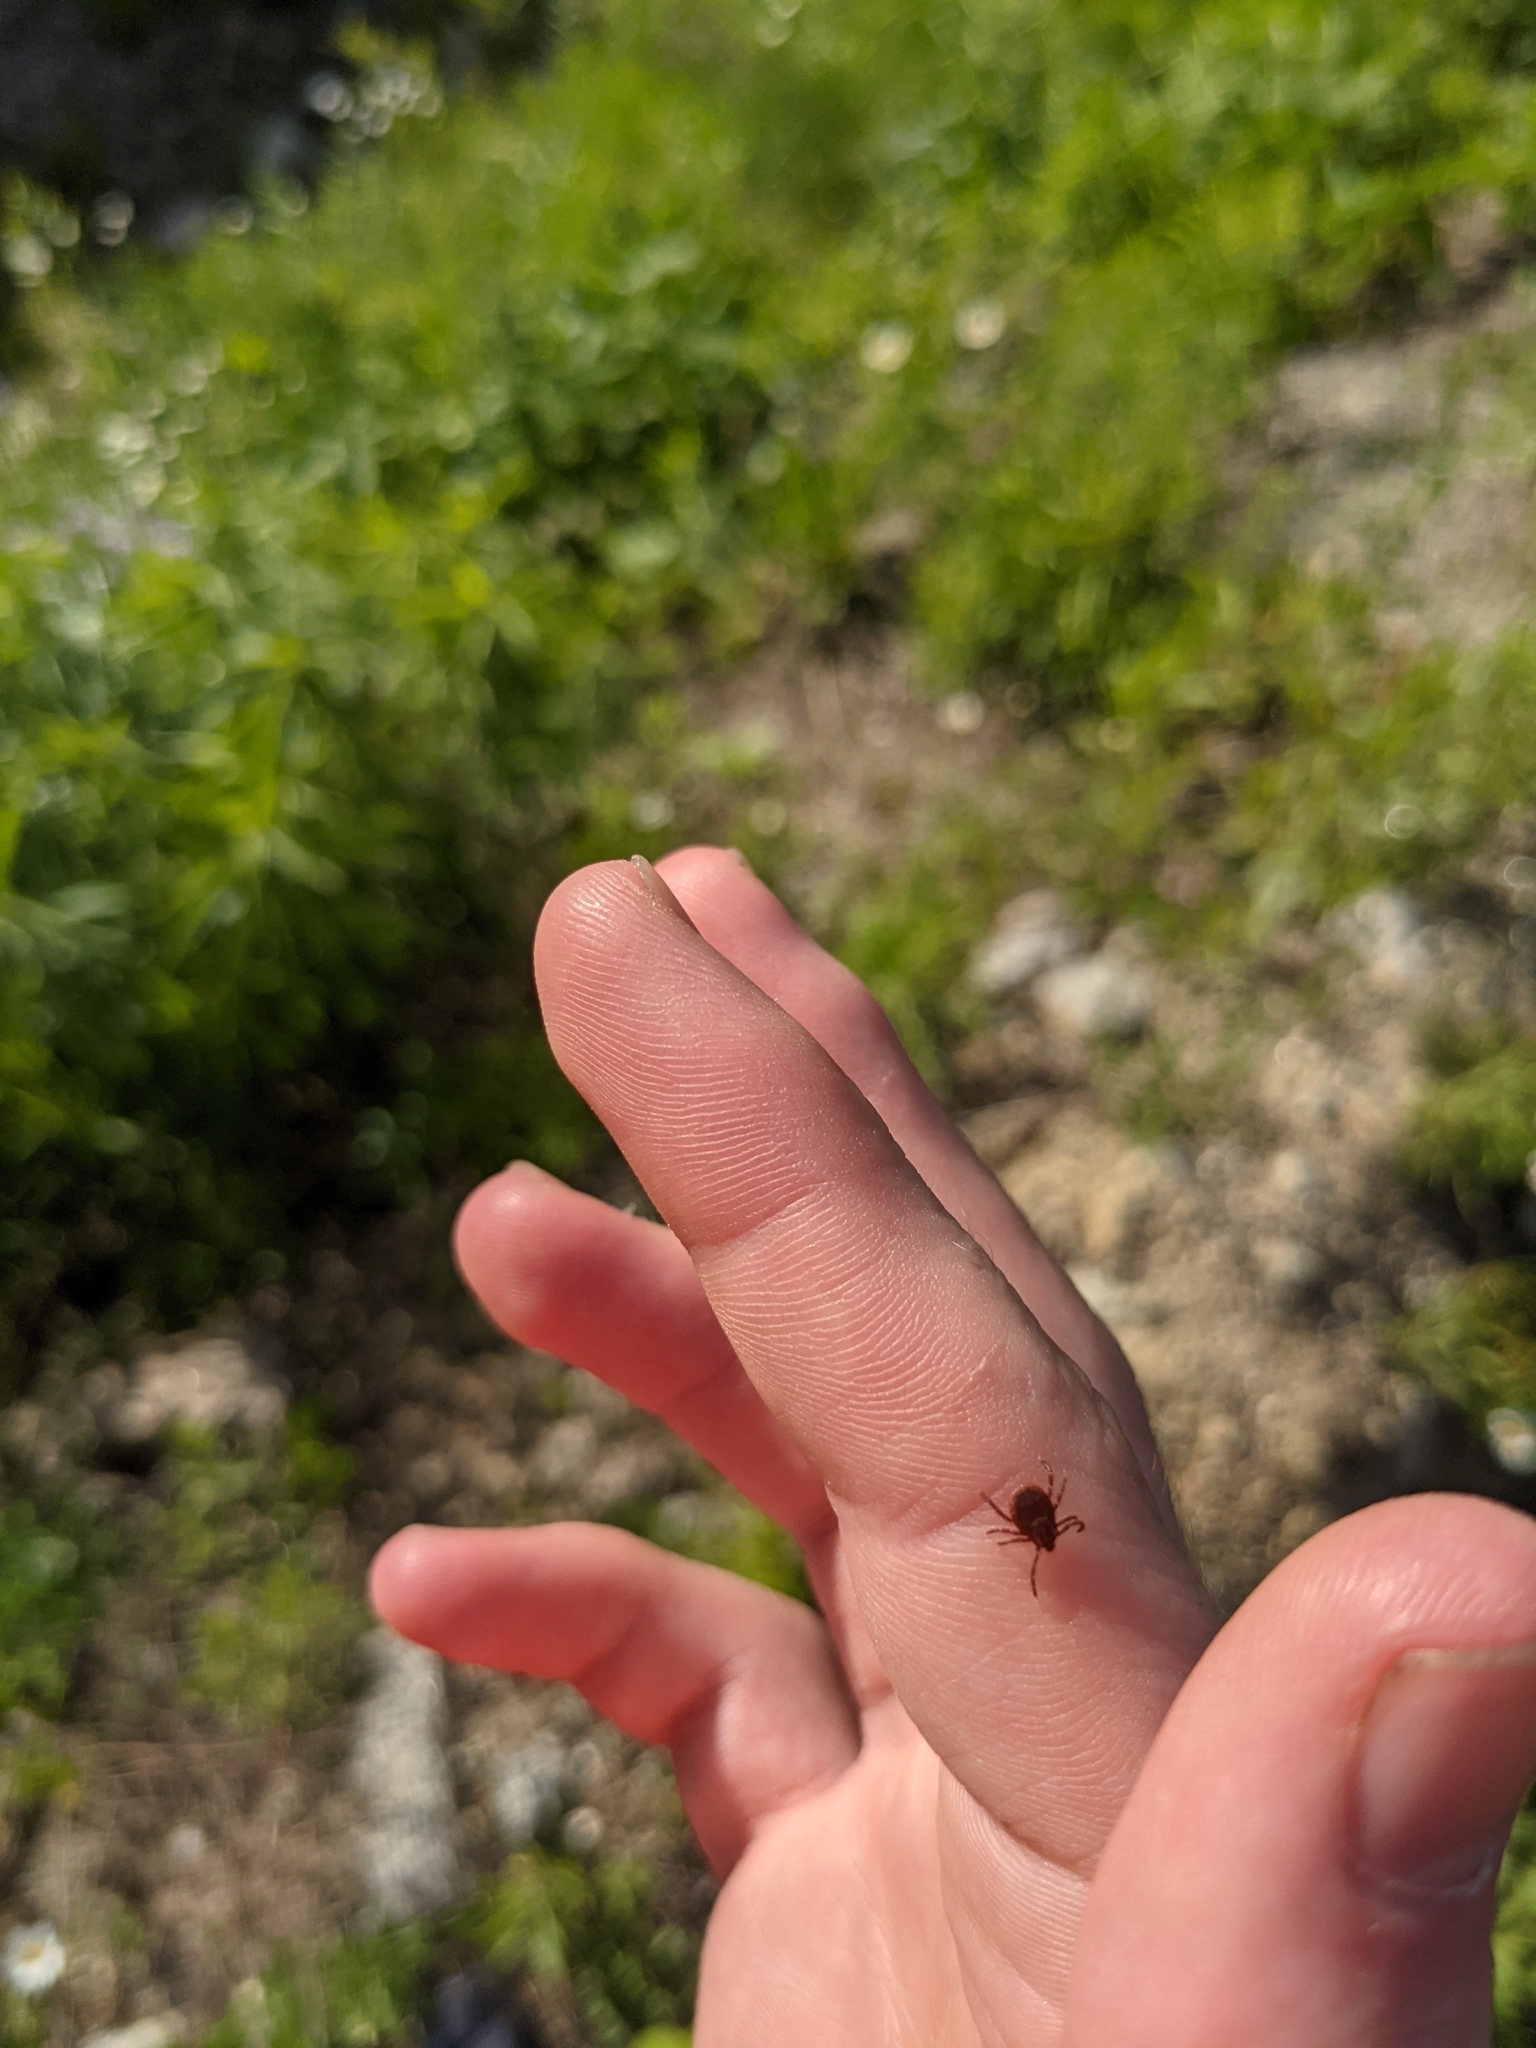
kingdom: Animalia
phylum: Arthropoda
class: Arachnida
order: Ixodida
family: Ixodidae
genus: Dermacentor
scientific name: Dermacentor variabilis
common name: American dog tick
